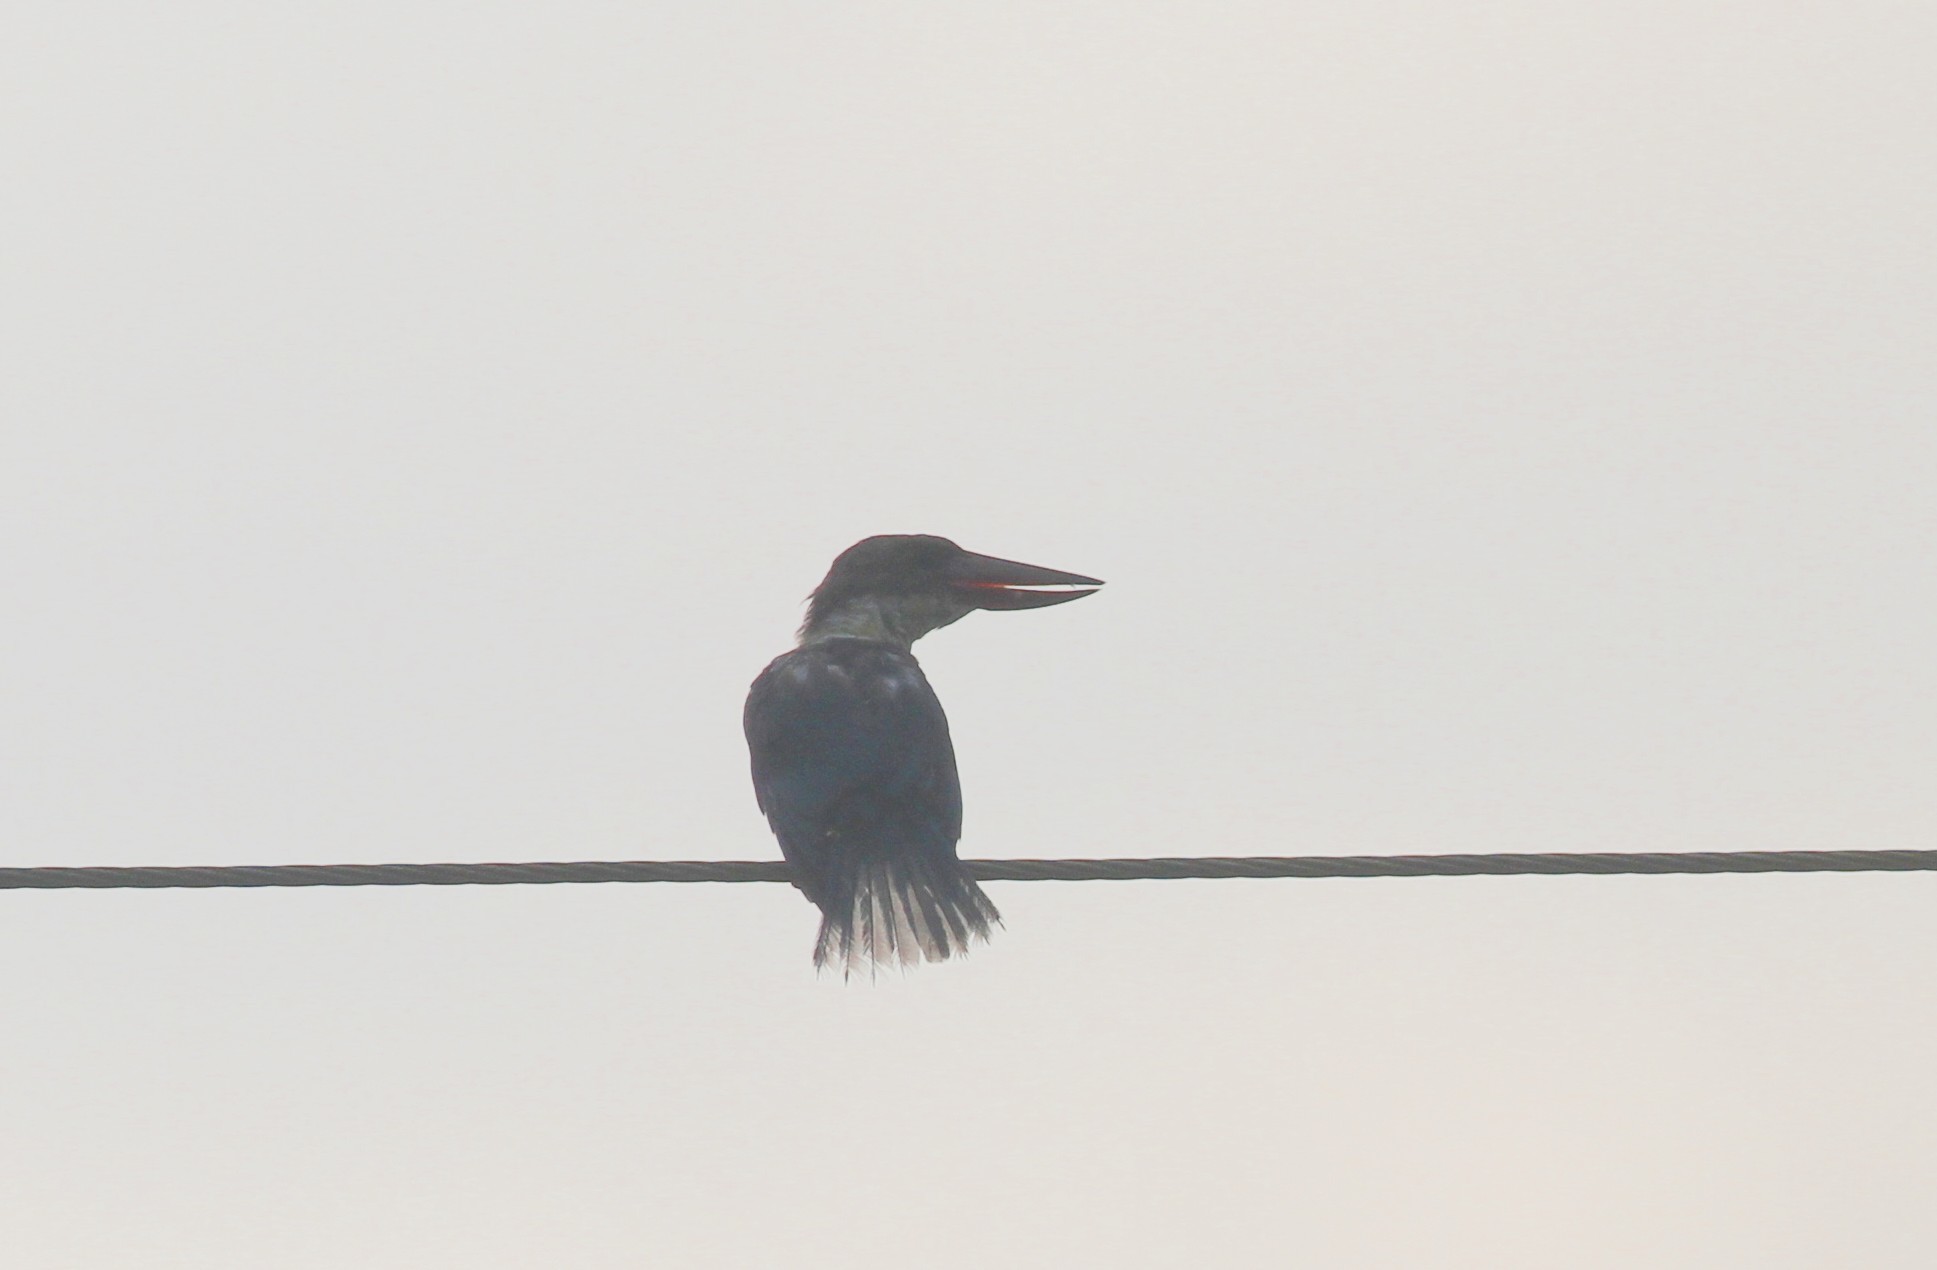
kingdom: Animalia
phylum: Chordata
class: Aves
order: Coraciiformes
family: Alcedinidae
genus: Pelargopsis
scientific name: Pelargopsis capensis
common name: Stork-billed kingfisher
